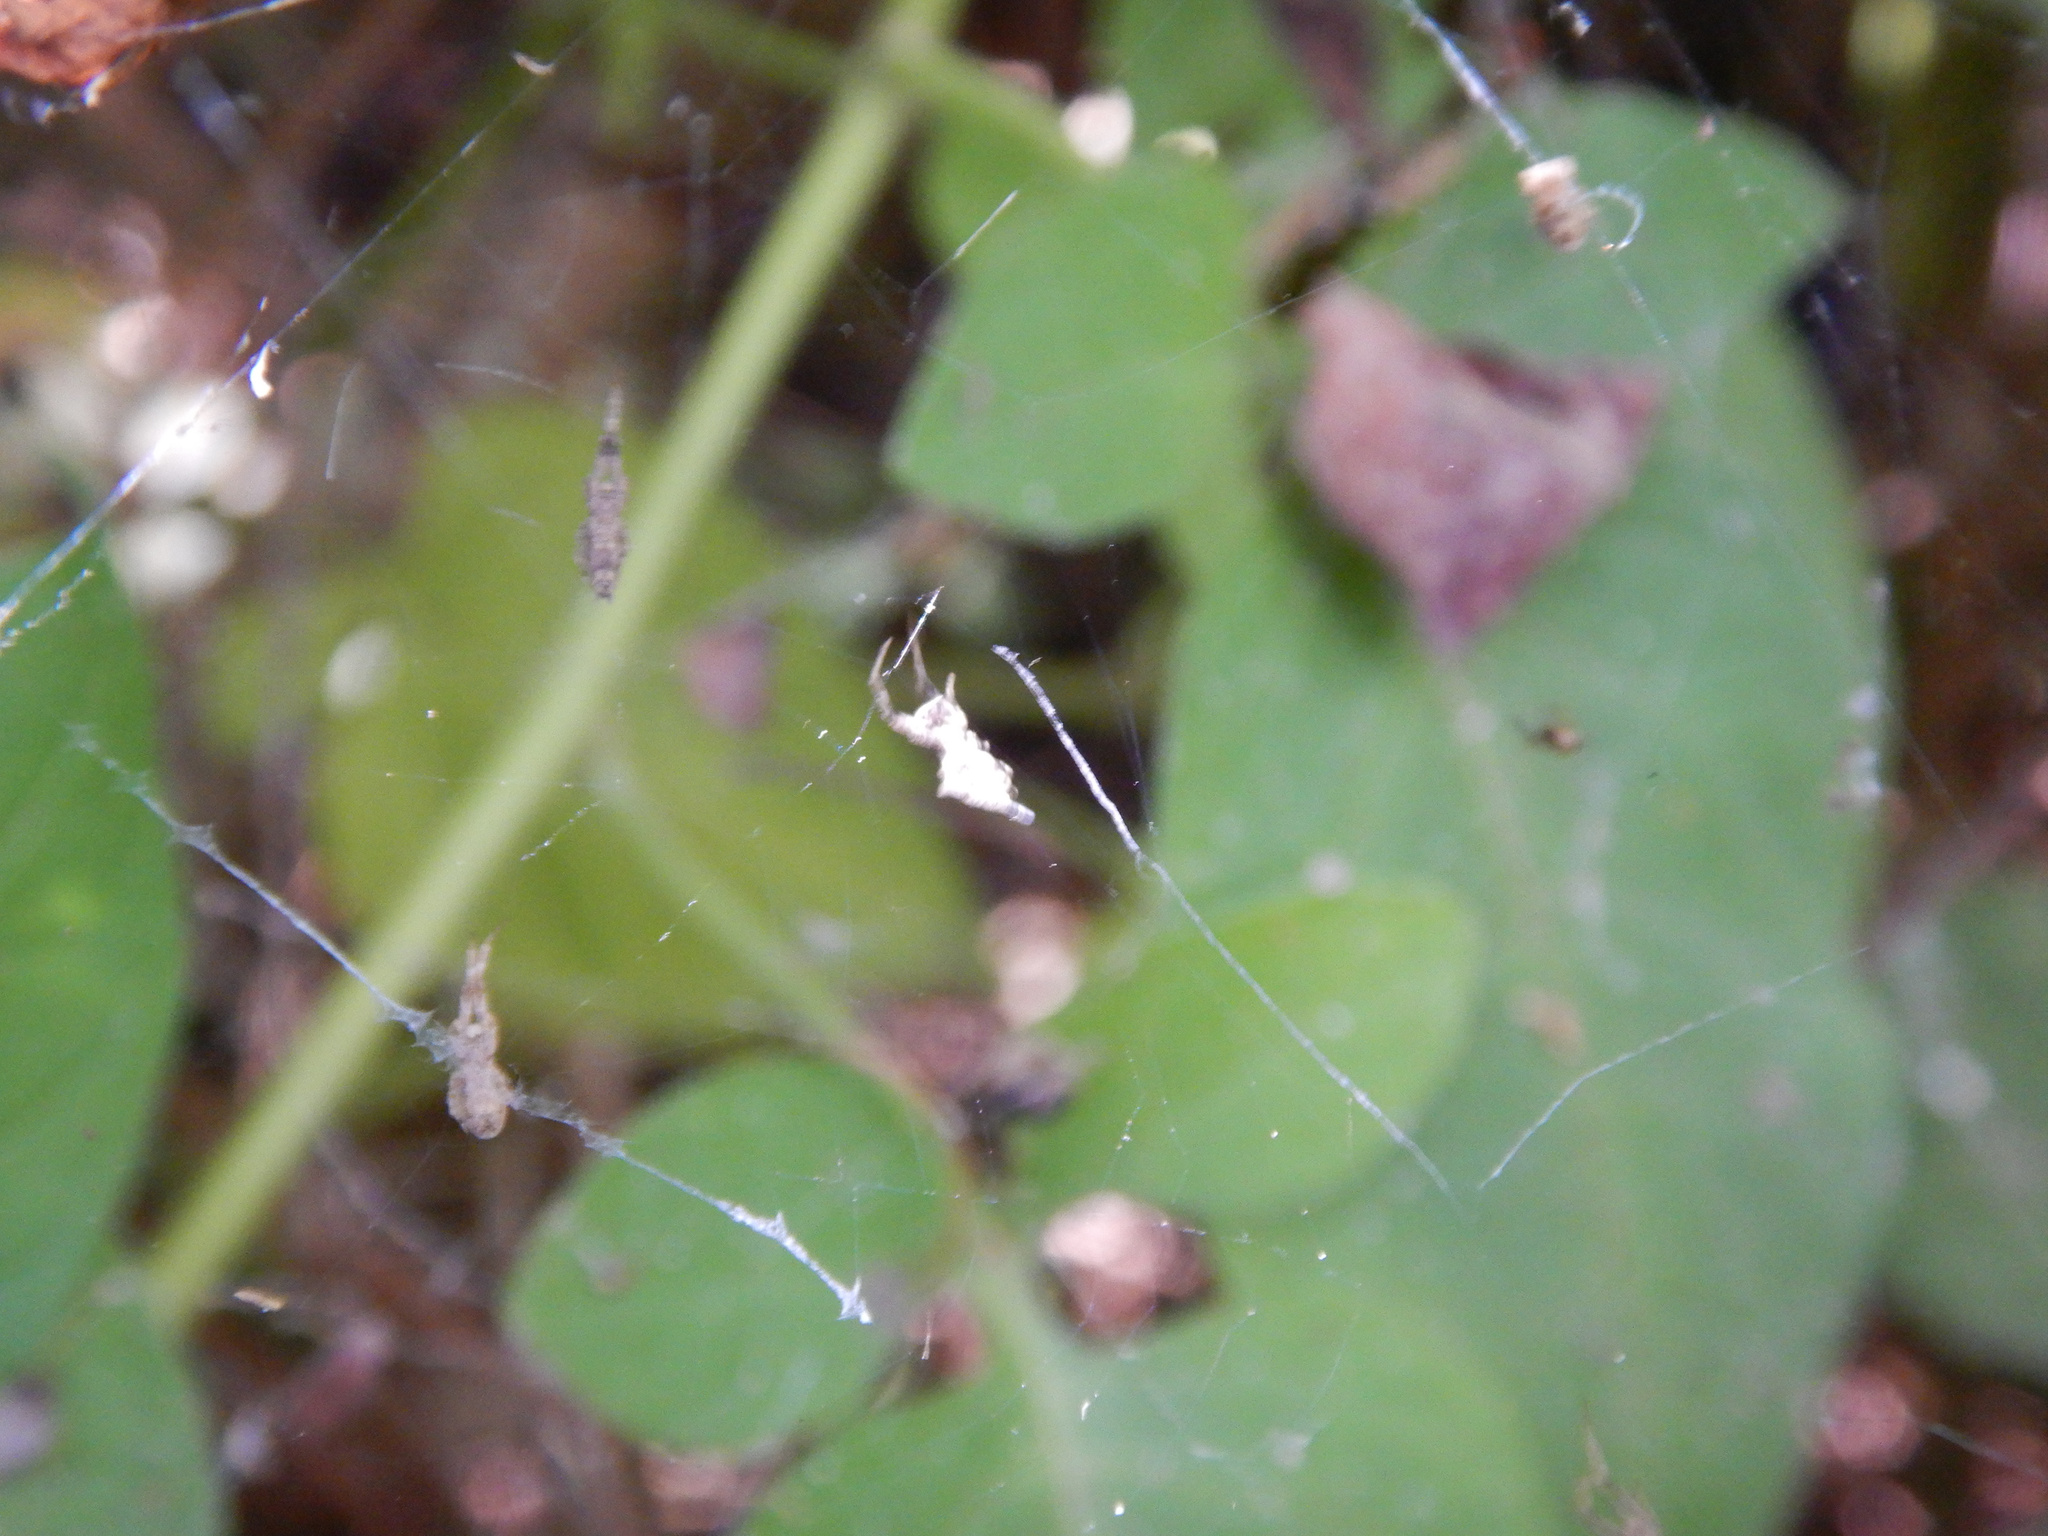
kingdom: Animalia
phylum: Arthropoda
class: Arachnida
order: Araneae
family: Uloboridae
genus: Philoponella
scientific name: Philoponella congregabilis
